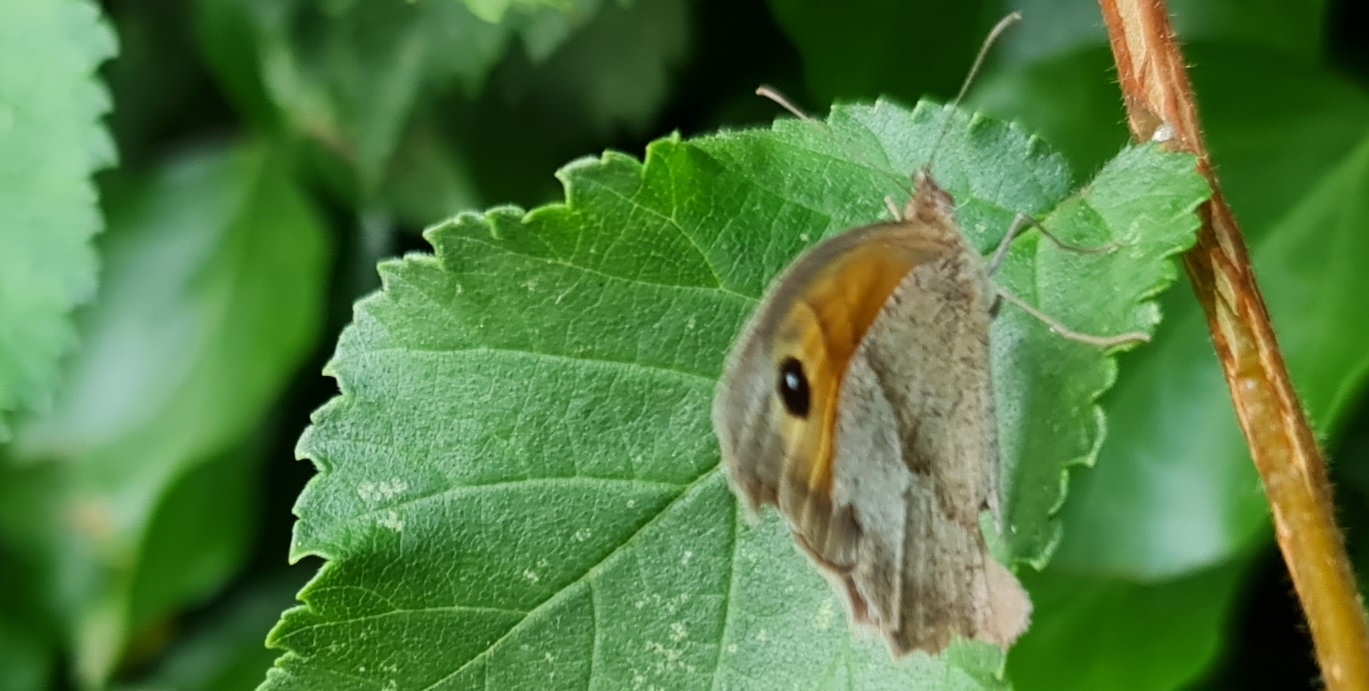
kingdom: Animalia
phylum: Arthropoda
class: Insecta
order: Lepidoptera
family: Nymphalidae
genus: Maniola
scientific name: Maniola jurtina
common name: Meadow brown
